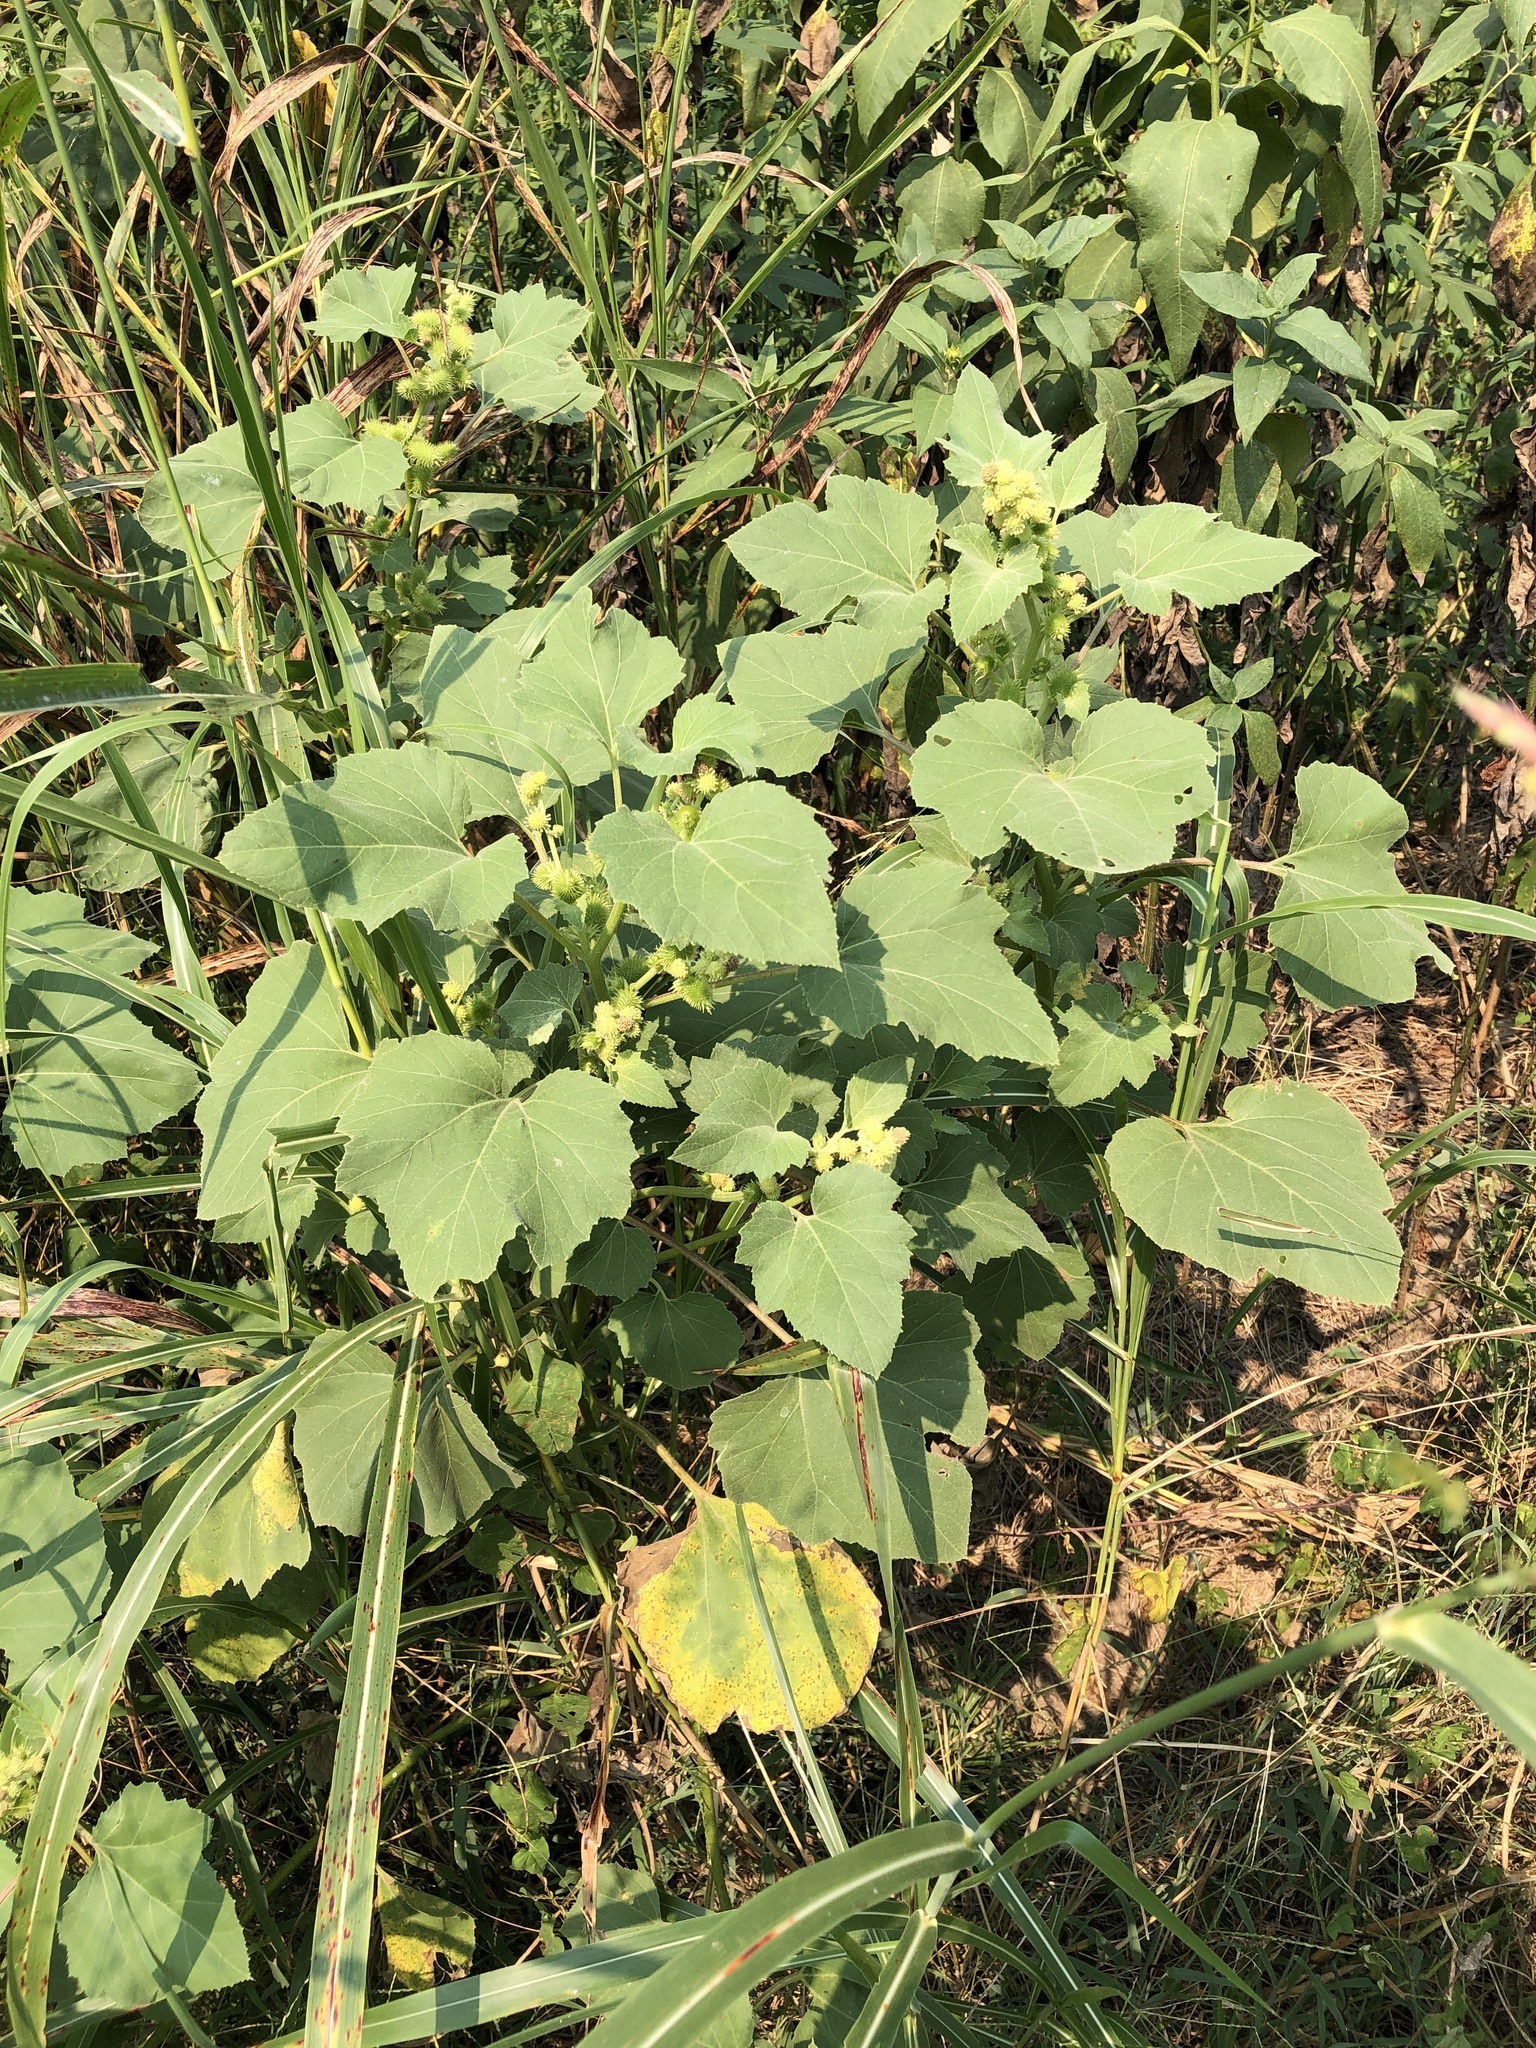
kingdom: Plantae
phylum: Tracheophyta
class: Magnoliopsida
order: Asterales
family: Asteraceae
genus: Xanthium
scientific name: Xanthium strumarium
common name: Rough cocklebur
